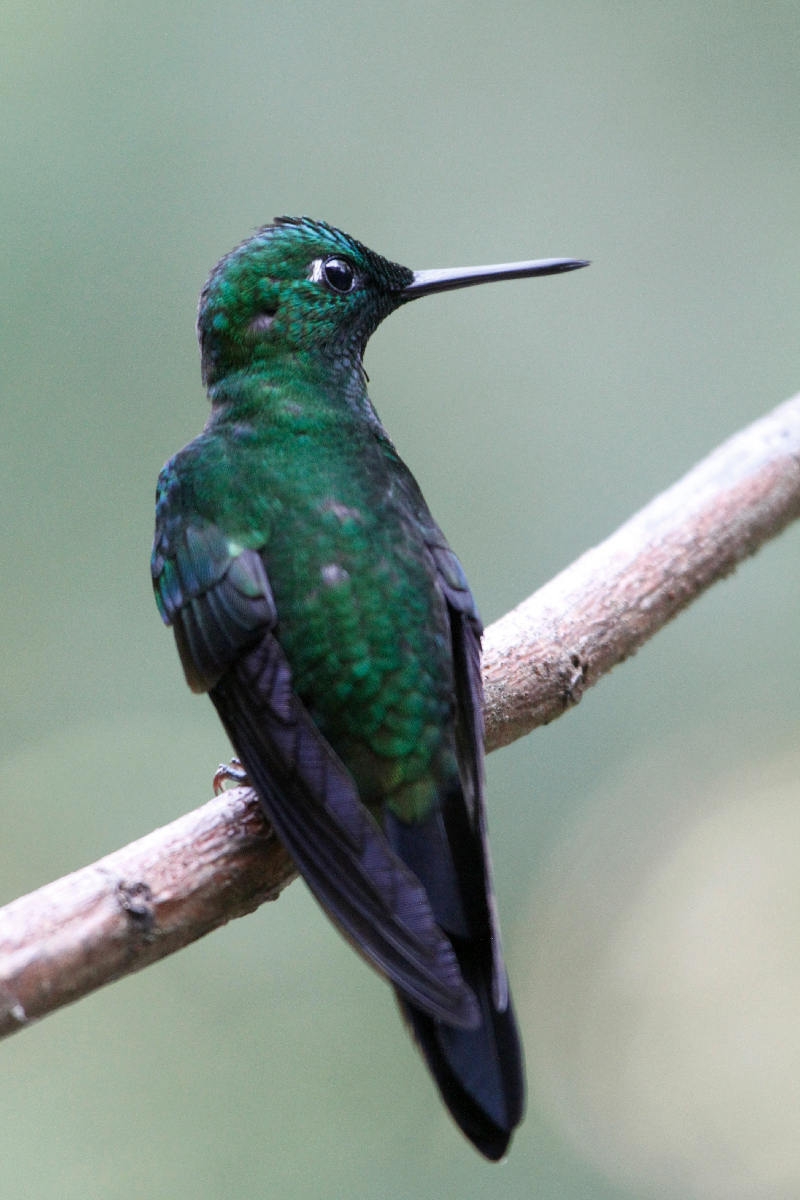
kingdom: Animalia
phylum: Chordata
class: Aves
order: Apodiformes
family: Trochilidae
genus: Heliodoxa
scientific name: Heliodoxa jacula
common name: Green-crowned brilliant
